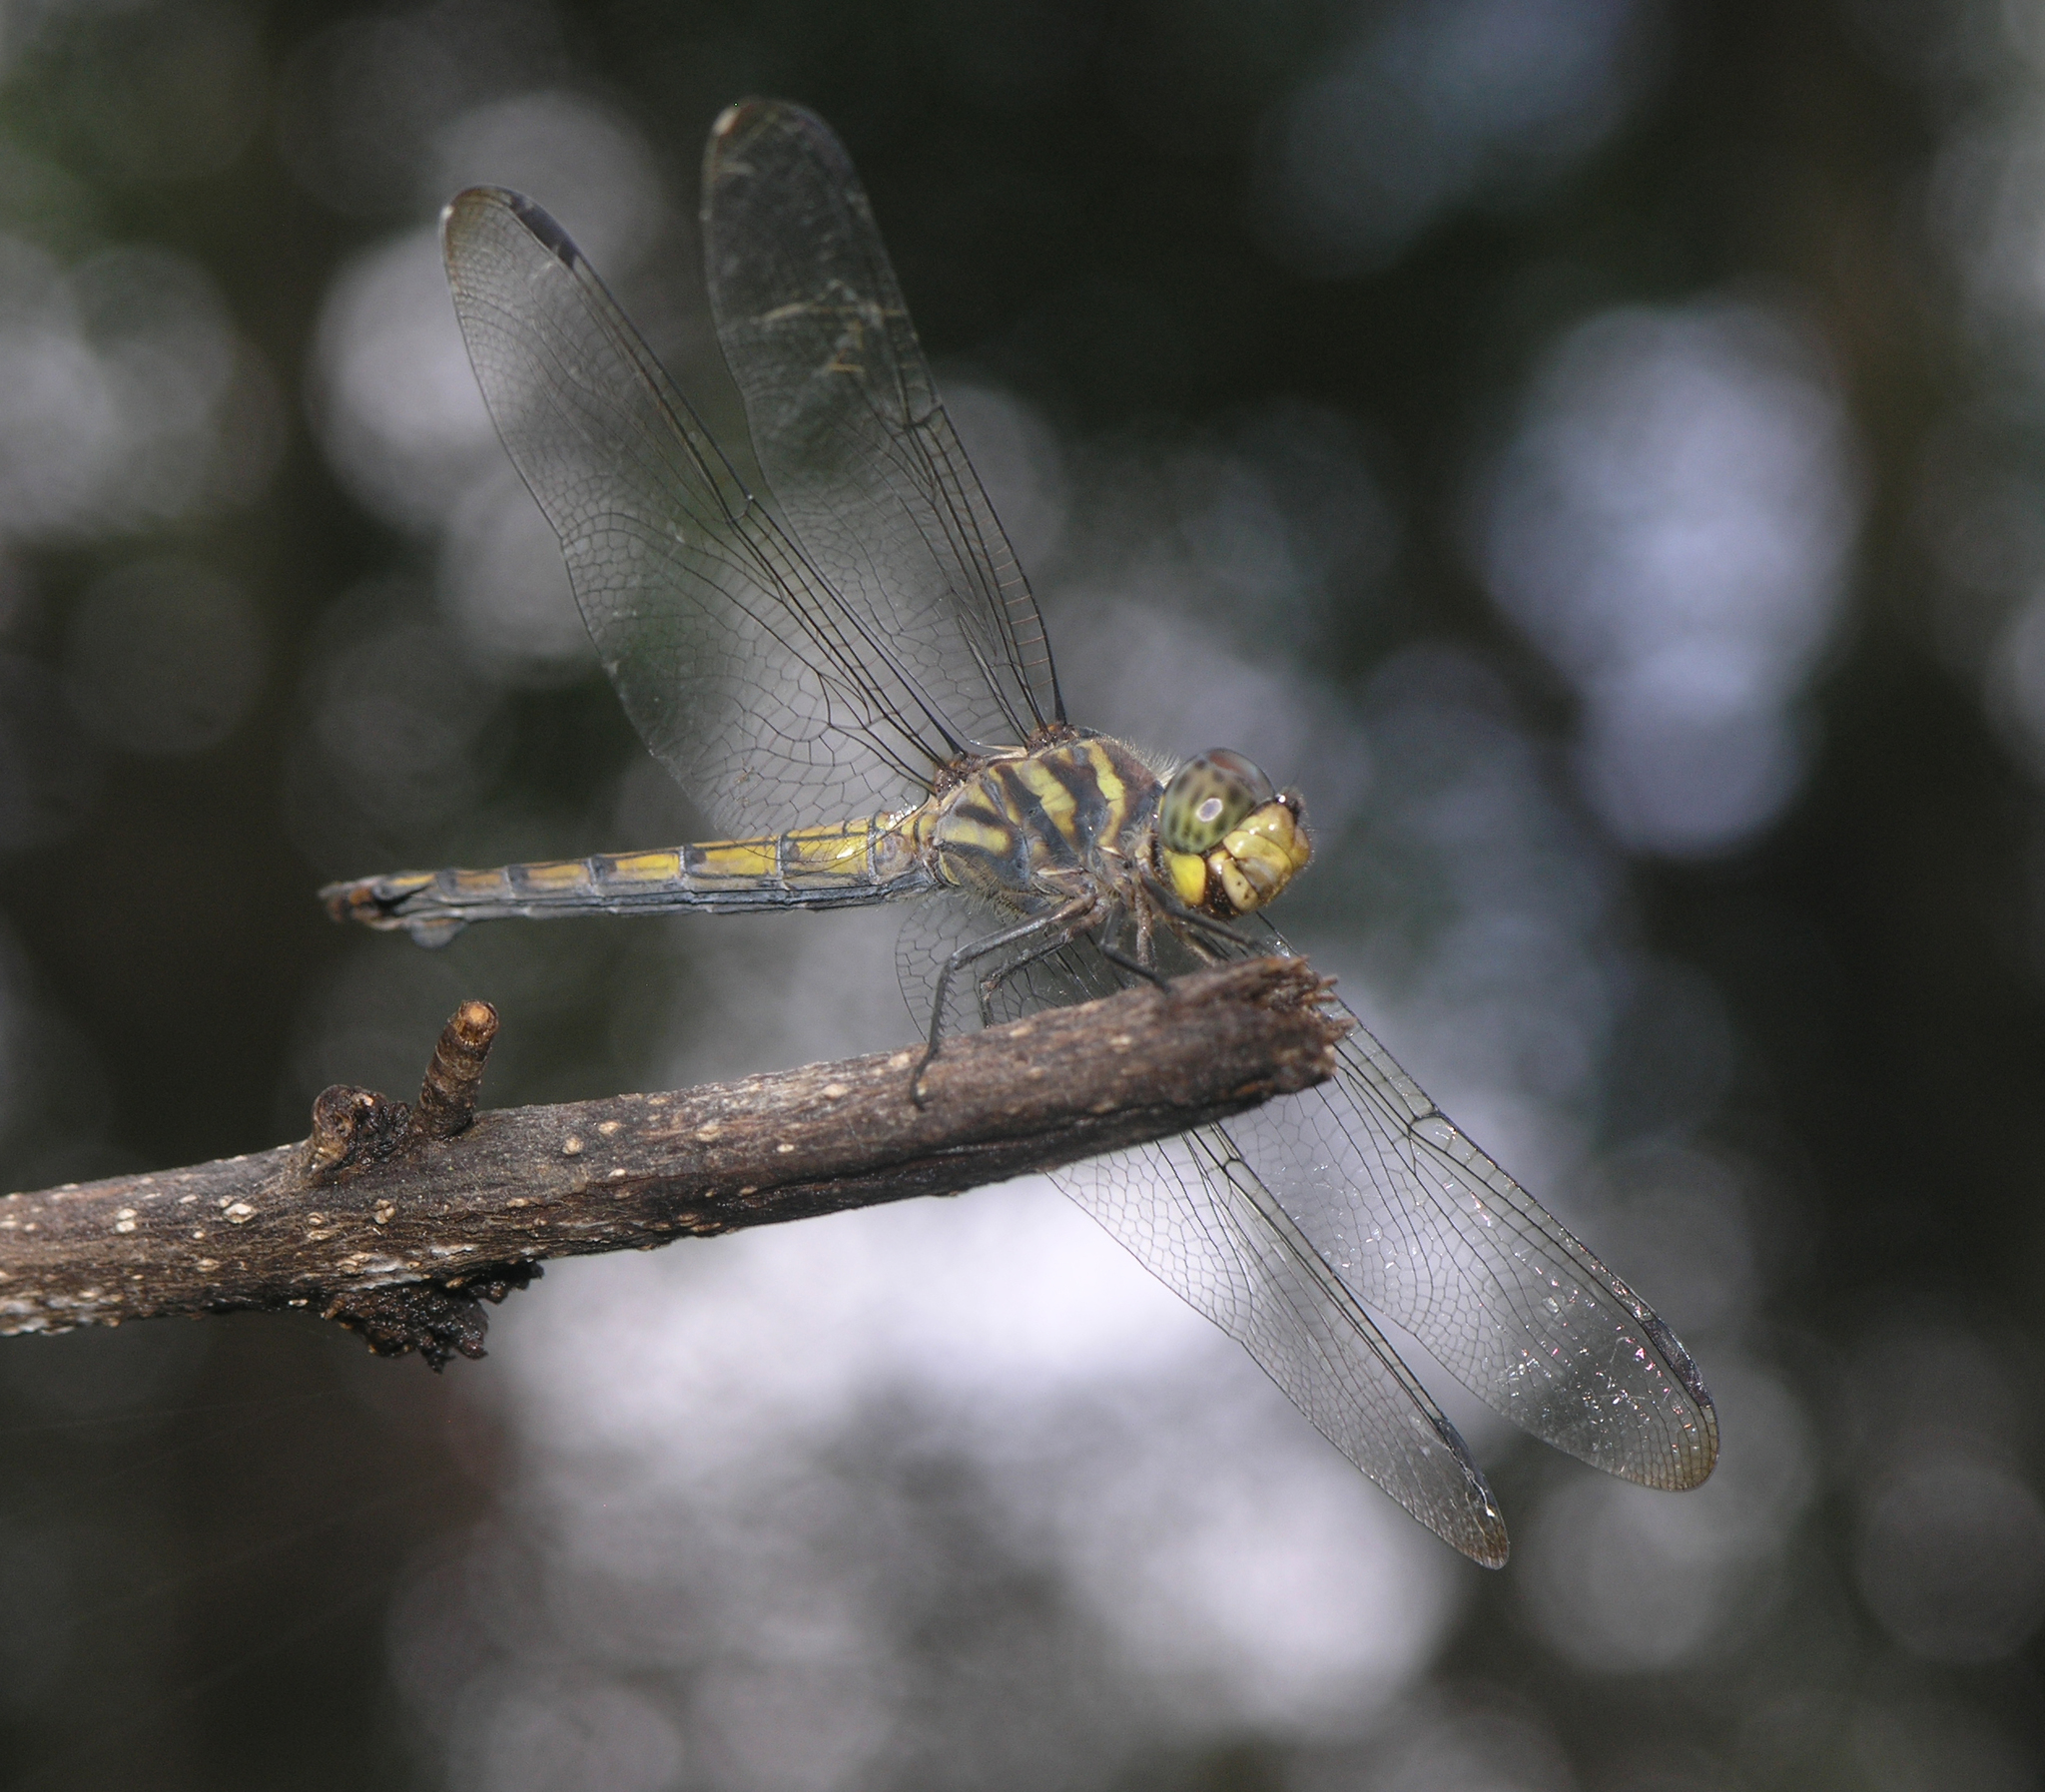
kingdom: Animalia
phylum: Arthropoda
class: Insecta
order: Odonata
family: Libellulidae
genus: Potamarcha
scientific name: Potamarcha congener
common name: Blue chaser
